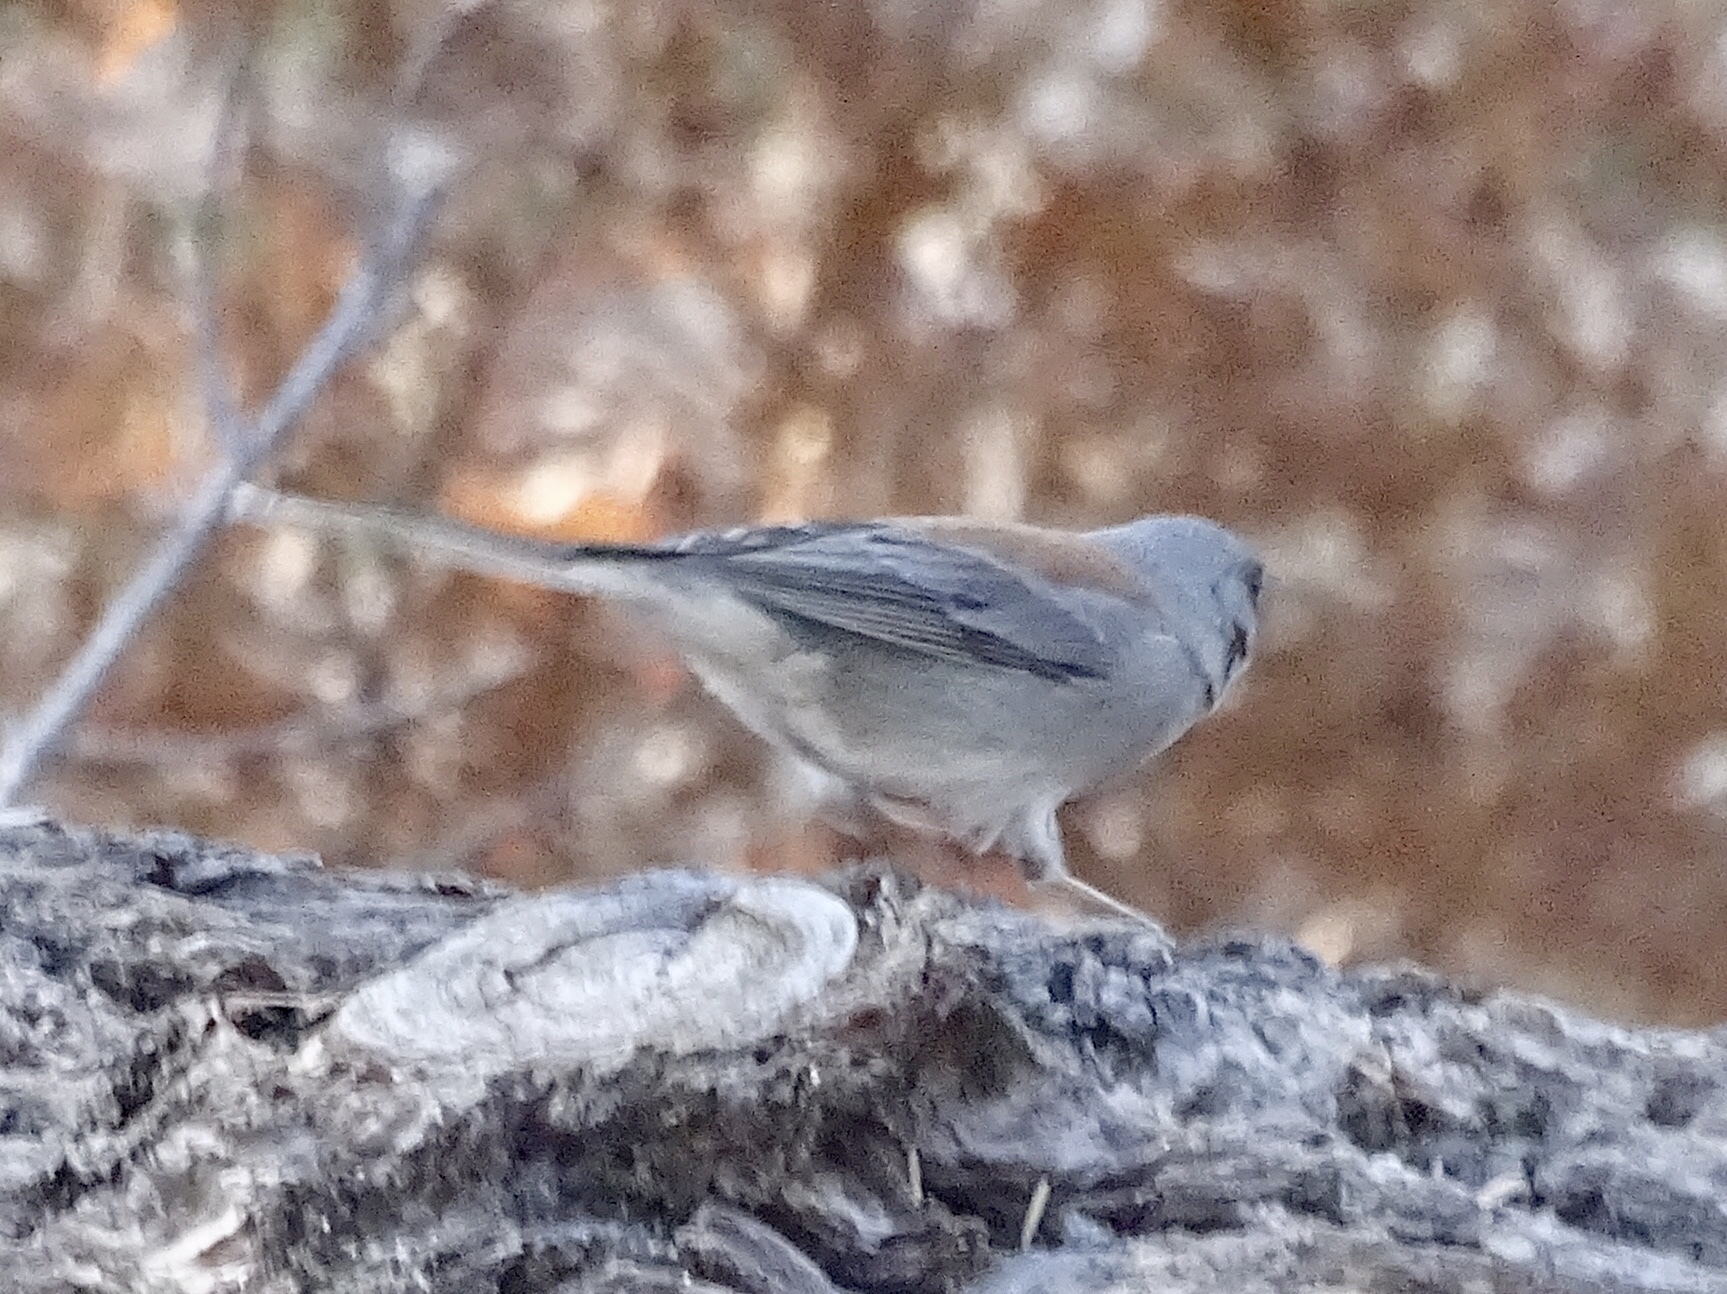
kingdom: Animalia
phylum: Chordata
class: Aves
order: Passeriformes
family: Passerellidae
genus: Junco
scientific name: Junco hyemalis
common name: Dark-eyed junco
